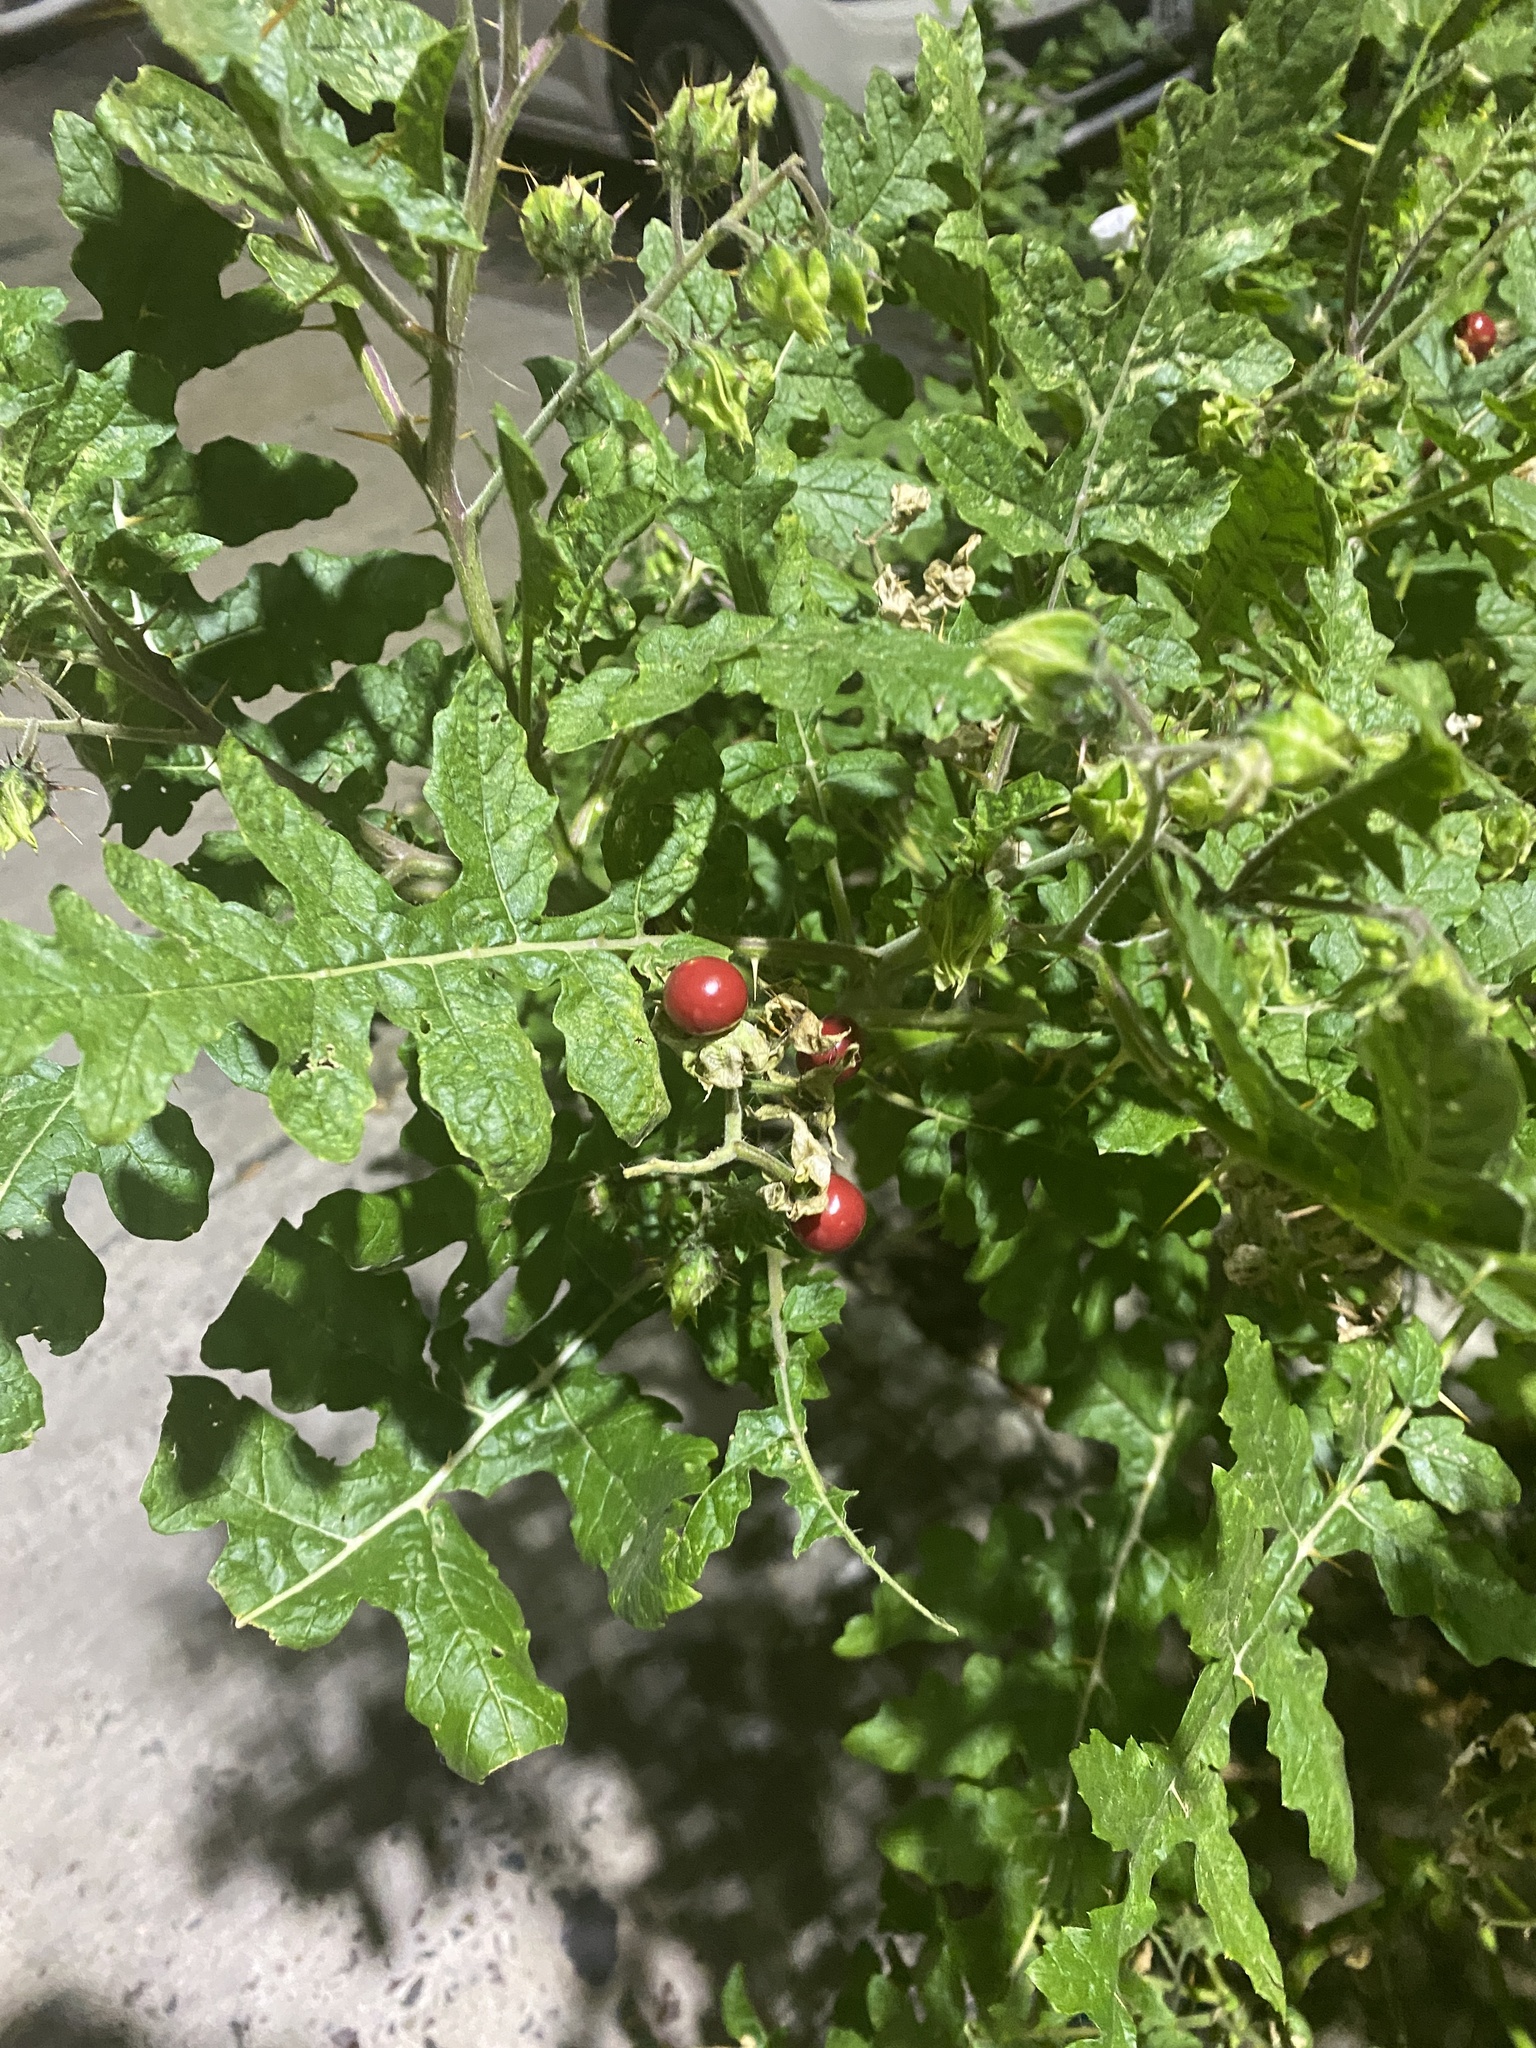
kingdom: Plantae
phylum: Tracheophyta
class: Magnoliopsida
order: Solanales
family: Solanaceae
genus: Solanum
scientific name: Solanum sisymbriifolium
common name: Red buffalo-bur
